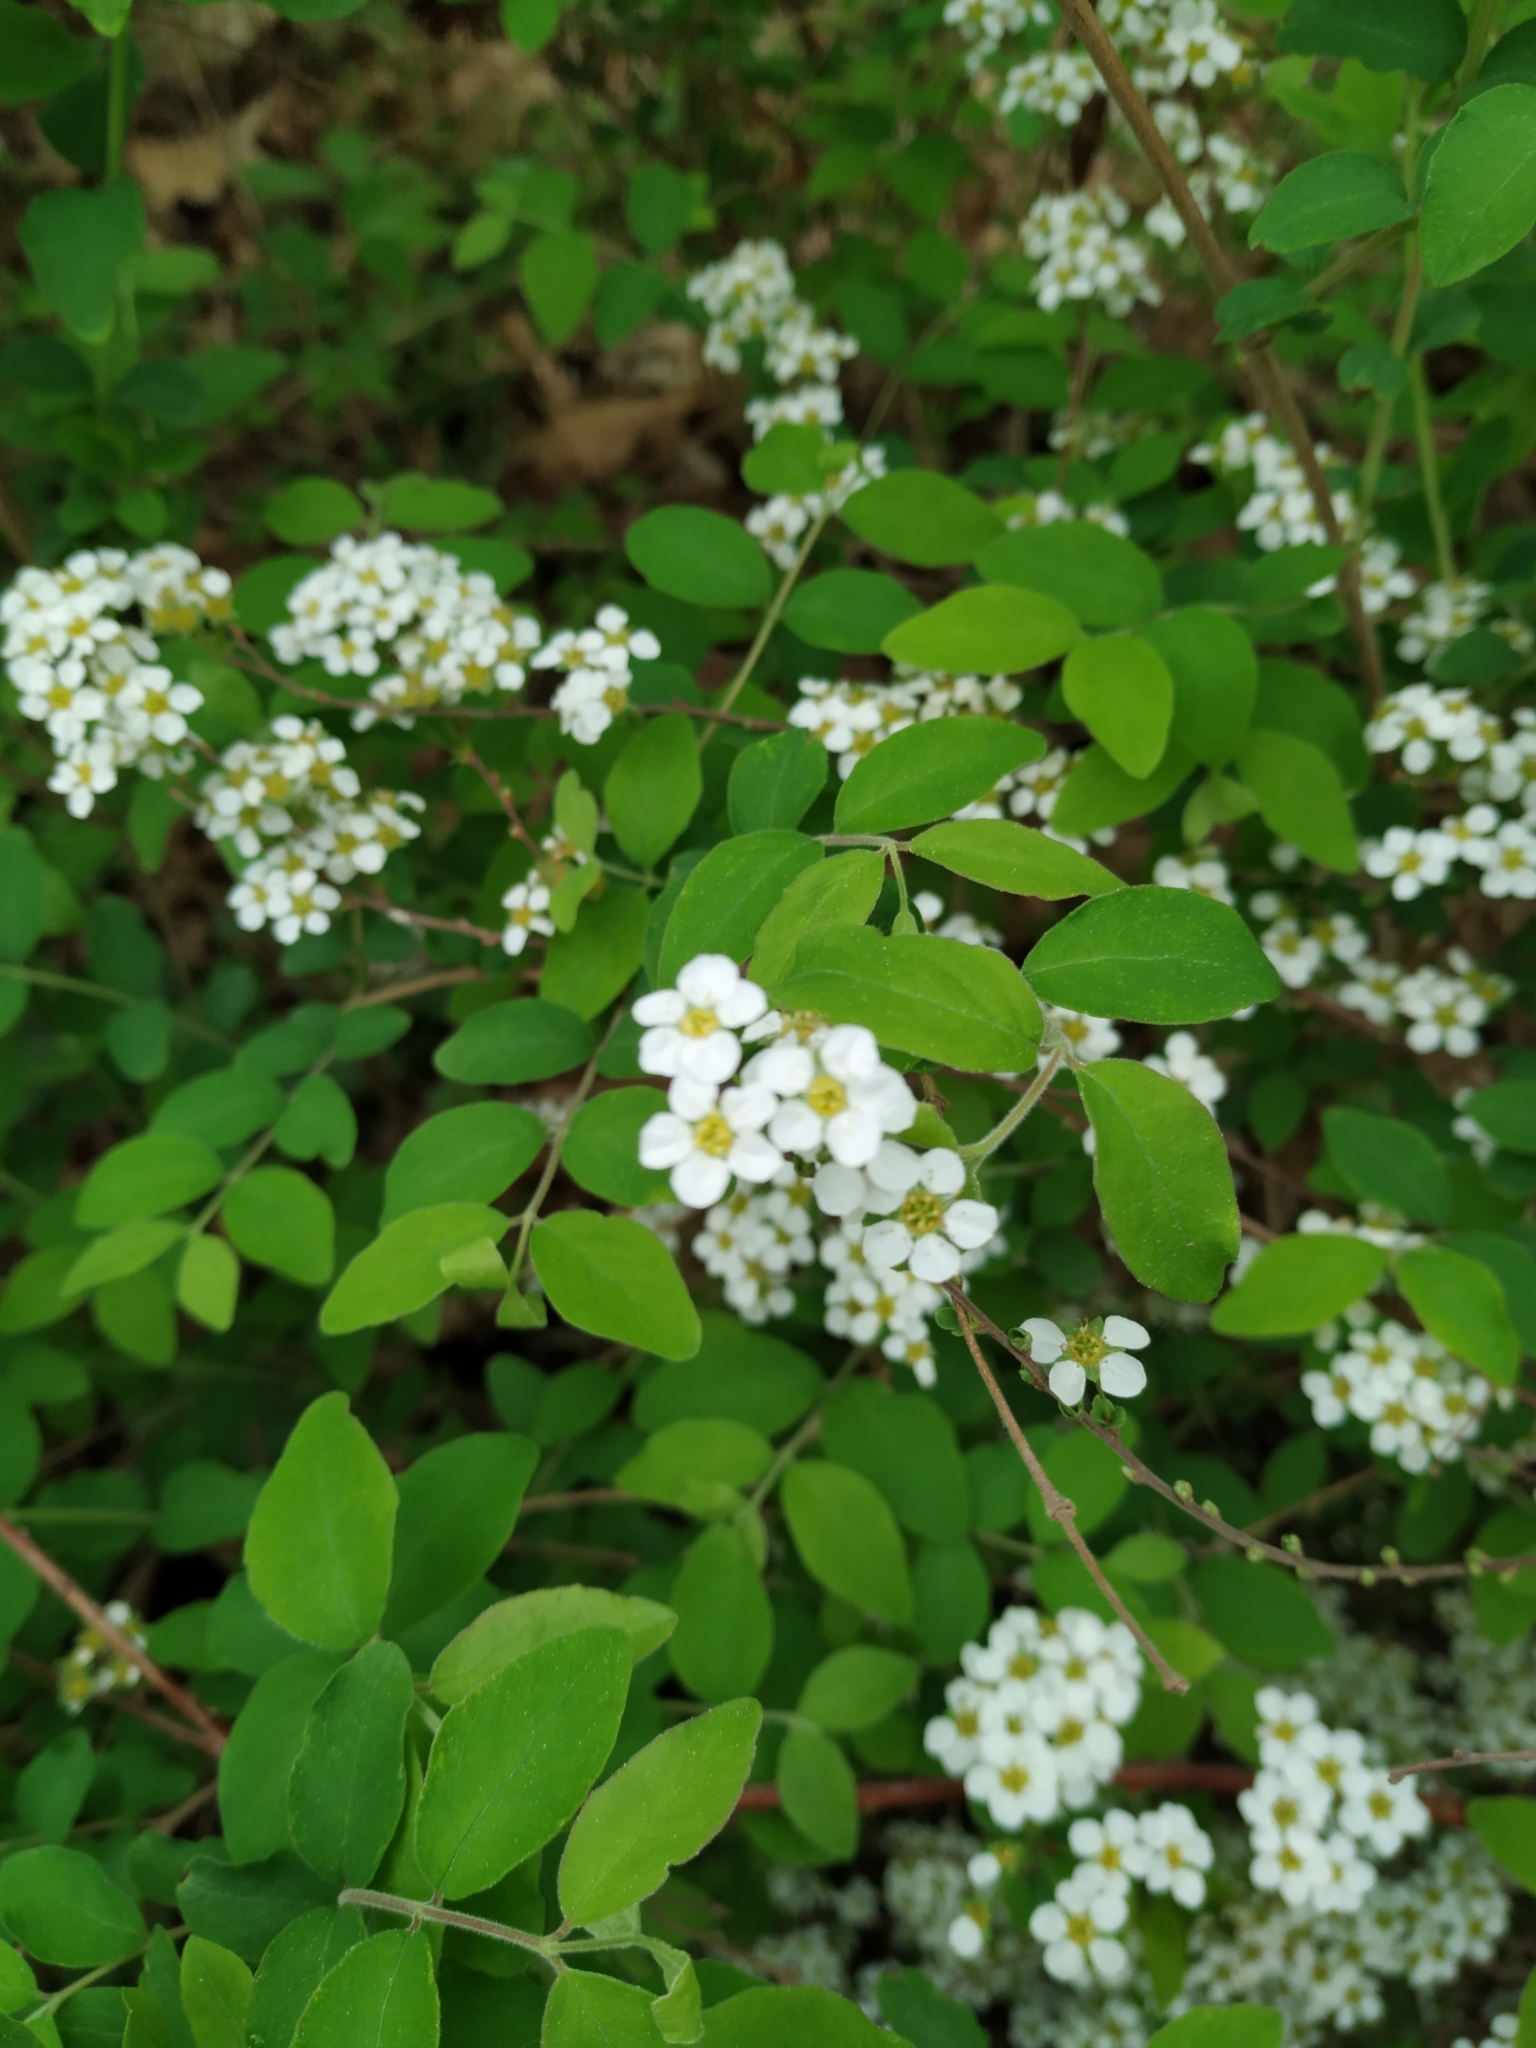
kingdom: Plantae
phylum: Tracheophyta
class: Magnoliopsida
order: Rosales
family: Rosaceae
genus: Spiraea
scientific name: Spiraea vanhouttei
